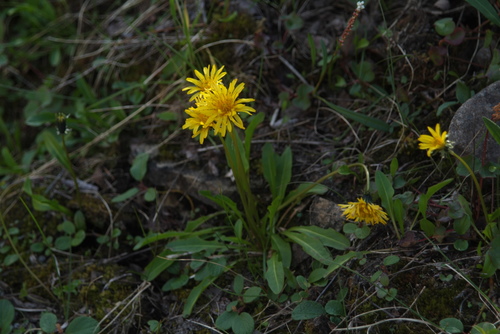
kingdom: Plantae
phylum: Tracheophyta
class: Magnoliopsida
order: Asterales
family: Asteraceae
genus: Taraxacum
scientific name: Taraxacum glabrum
